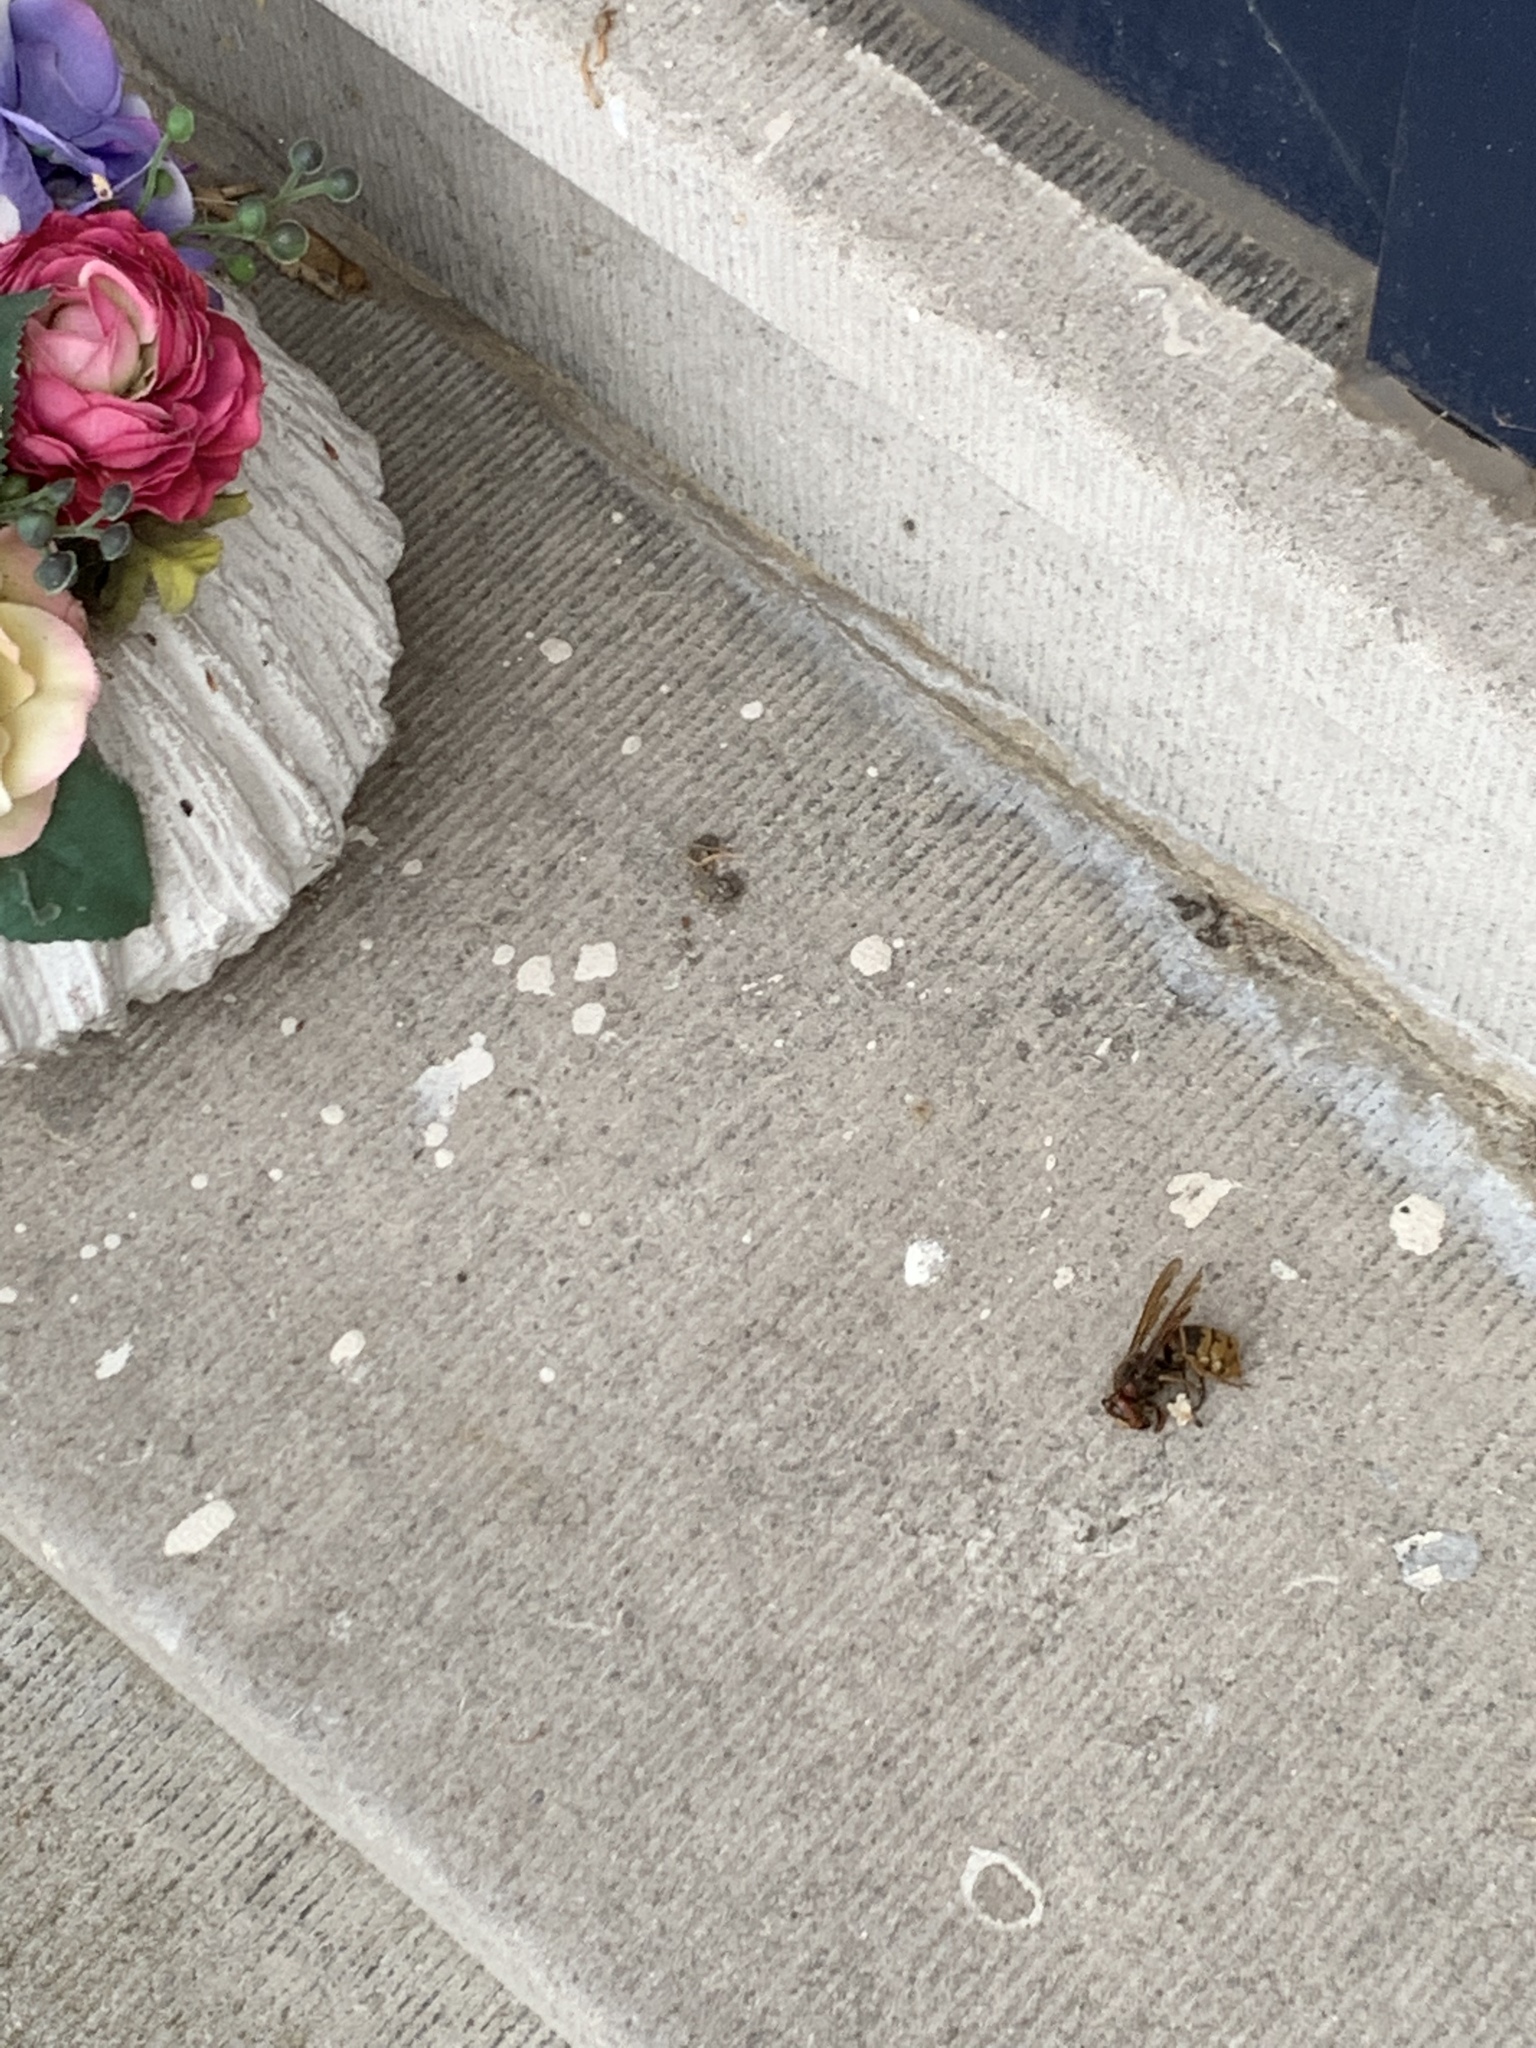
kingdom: Animalia
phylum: Arthropoda
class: Insecta
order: Hymenoptera
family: Vespidae
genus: Vespa
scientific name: Vespa crabro
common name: Hornet
